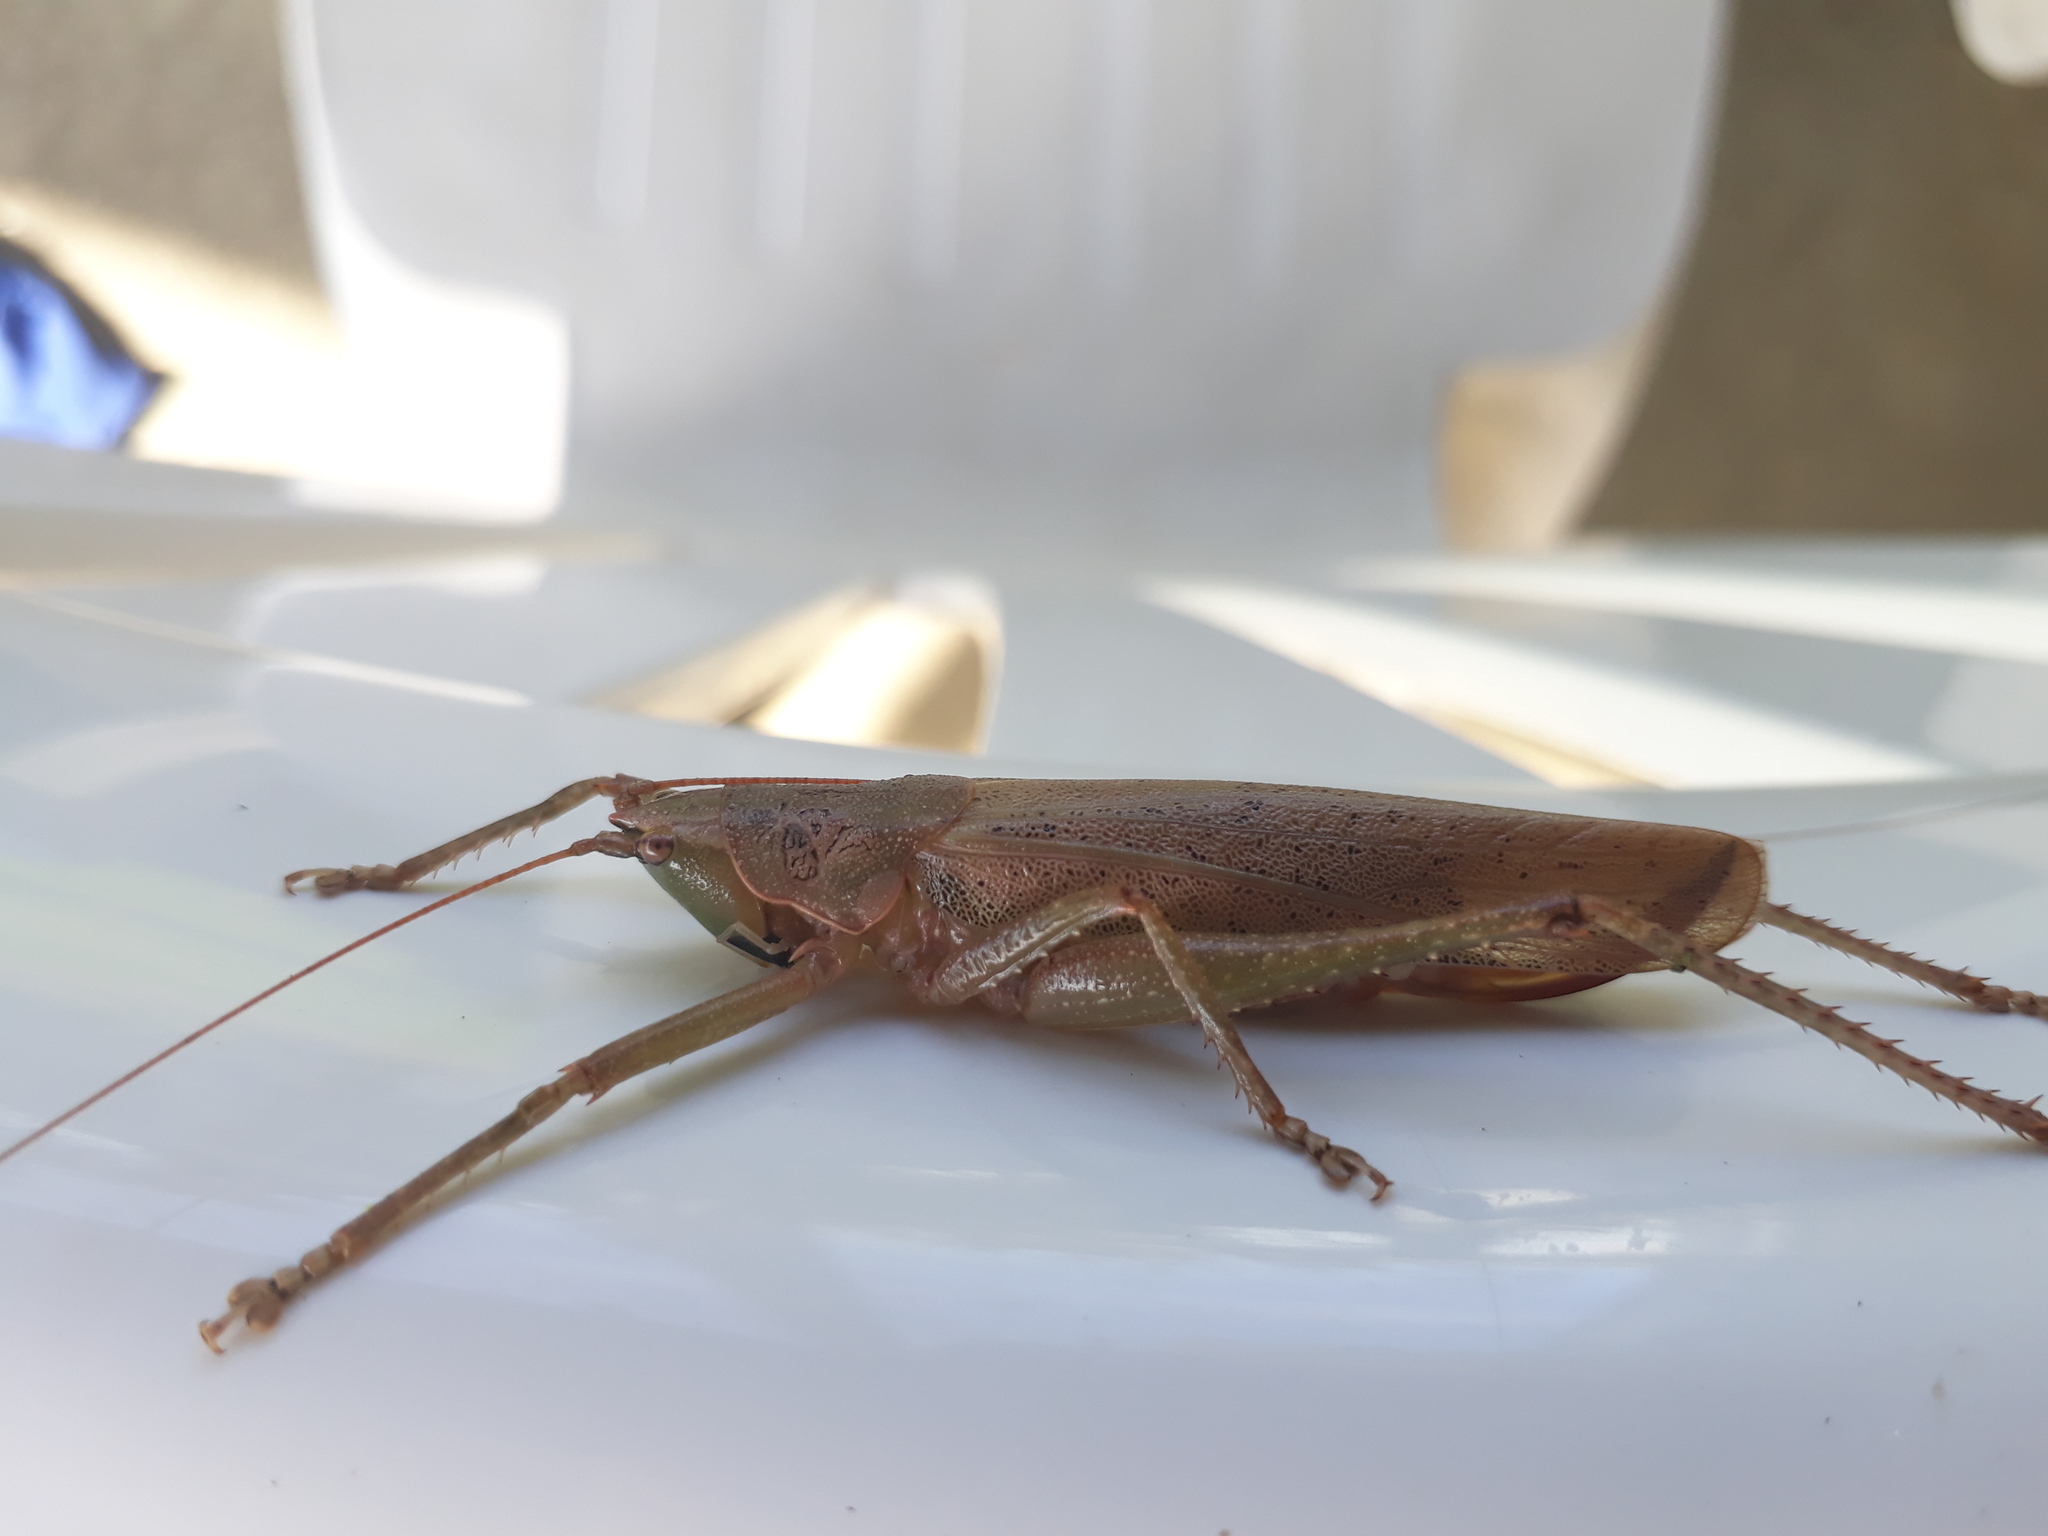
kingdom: Animalia
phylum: Arthropoda
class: Insecta
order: Orthoptera
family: Tettigoniidae
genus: Austrosalomona
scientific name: Austrosalomona falcata
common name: Olive-green coastal katydid
